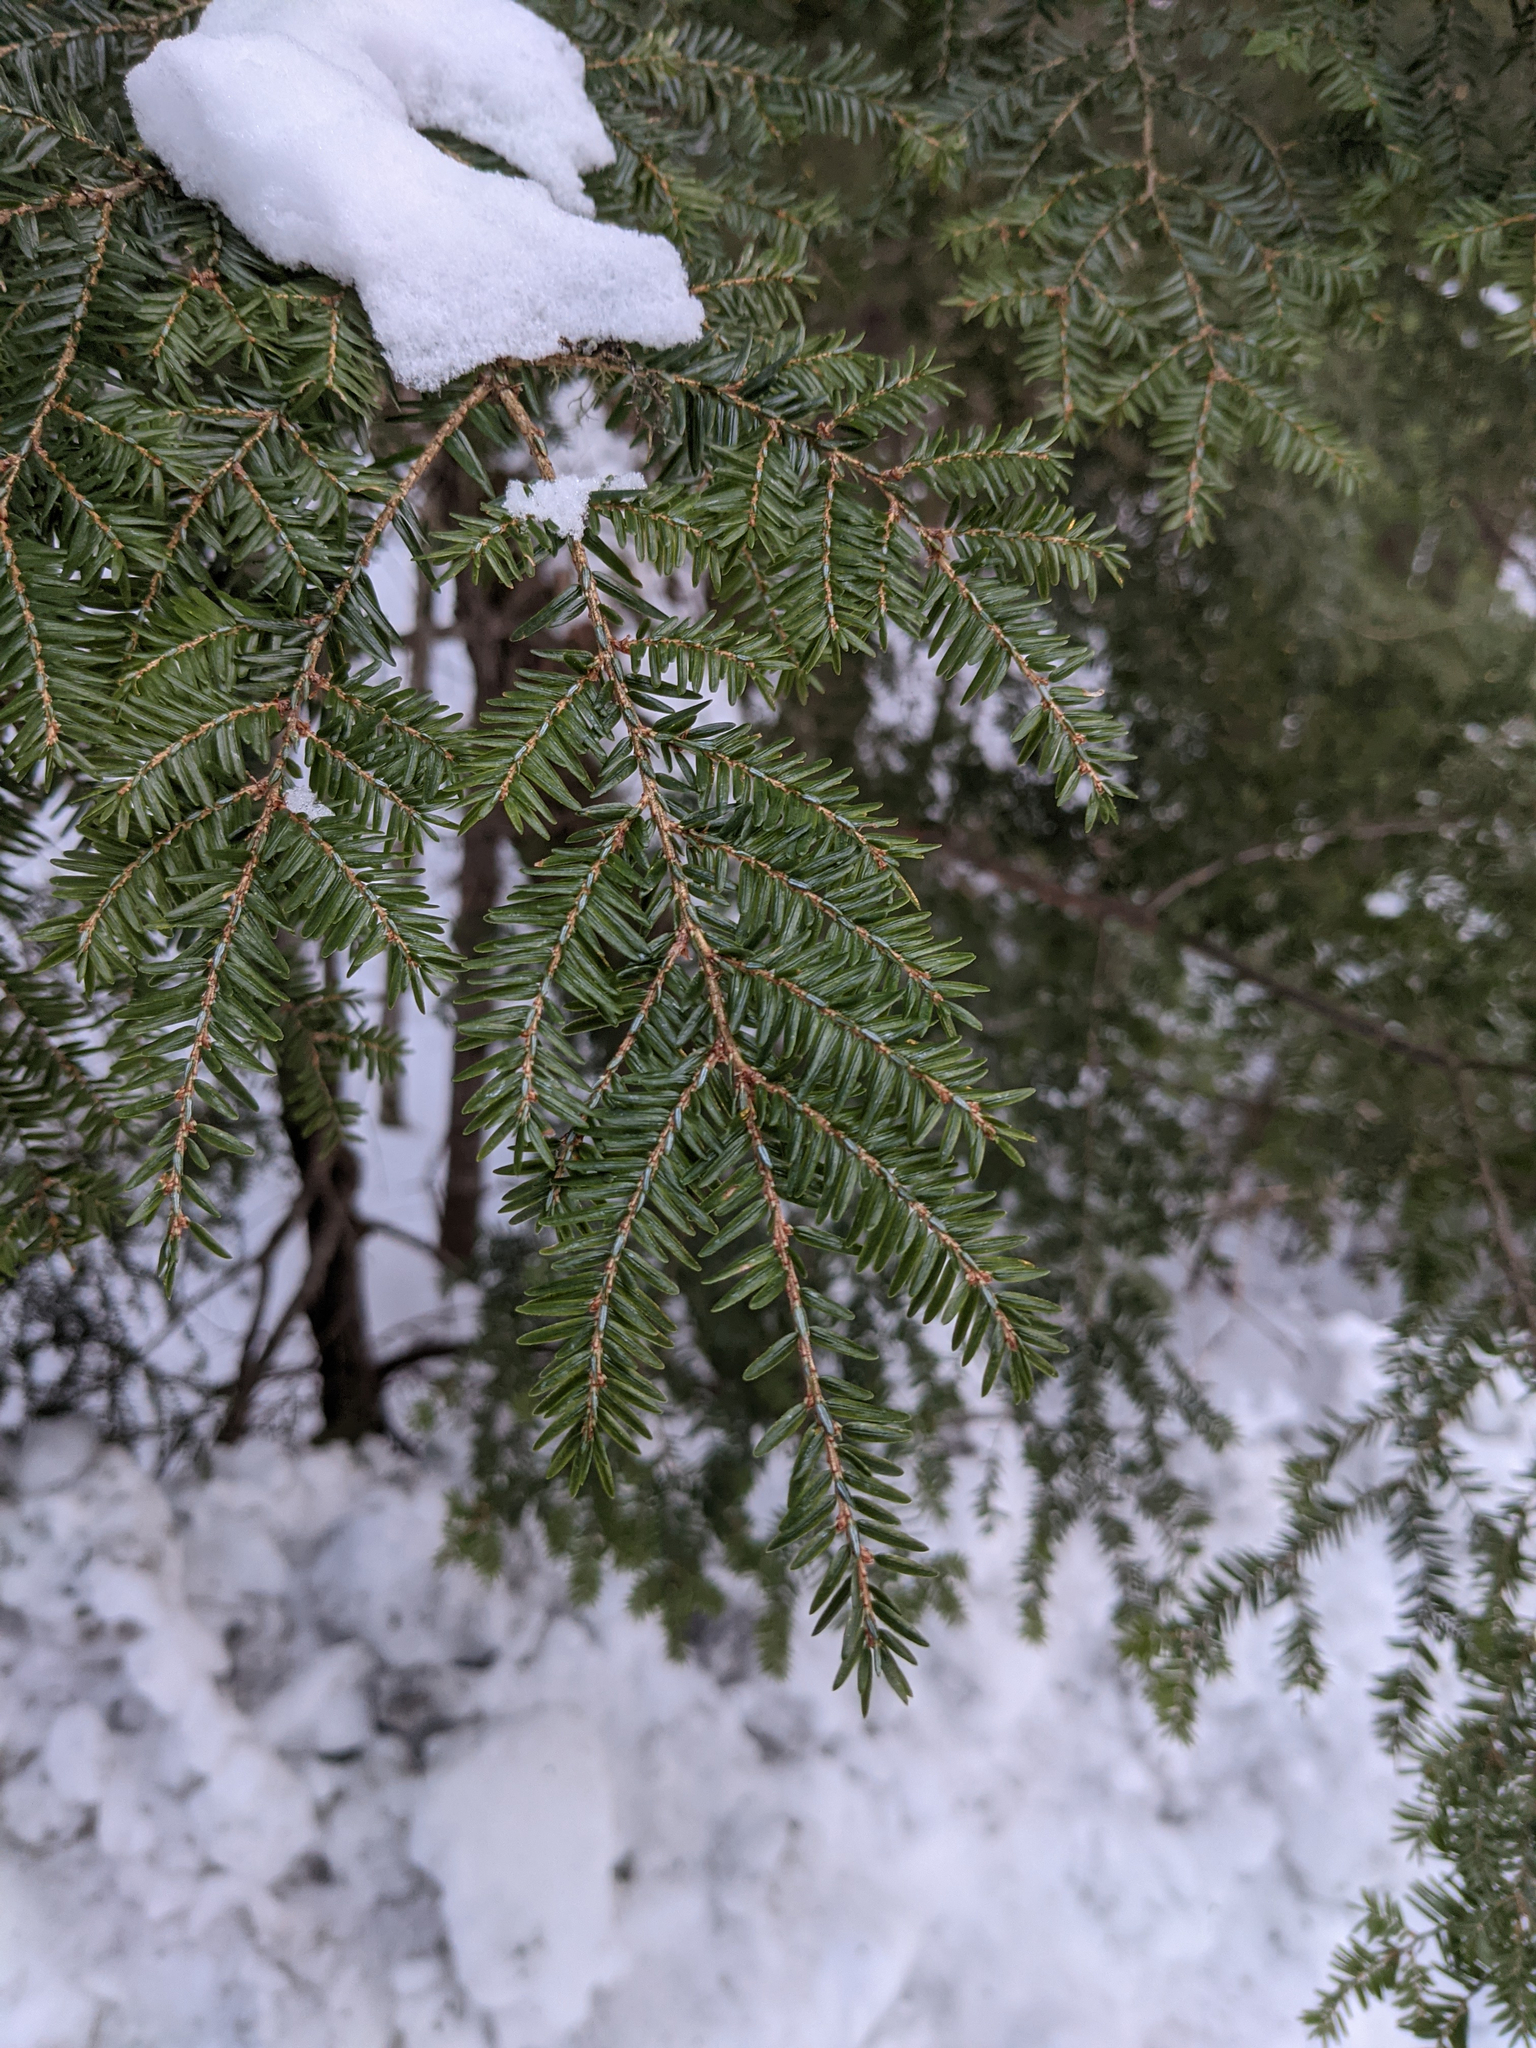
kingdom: Plantae
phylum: Tracheophyta
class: Pinopsida
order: Pinales
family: Pinaceae
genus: Tsuga
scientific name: Tsuga canadensis
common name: Eastern hemlock
